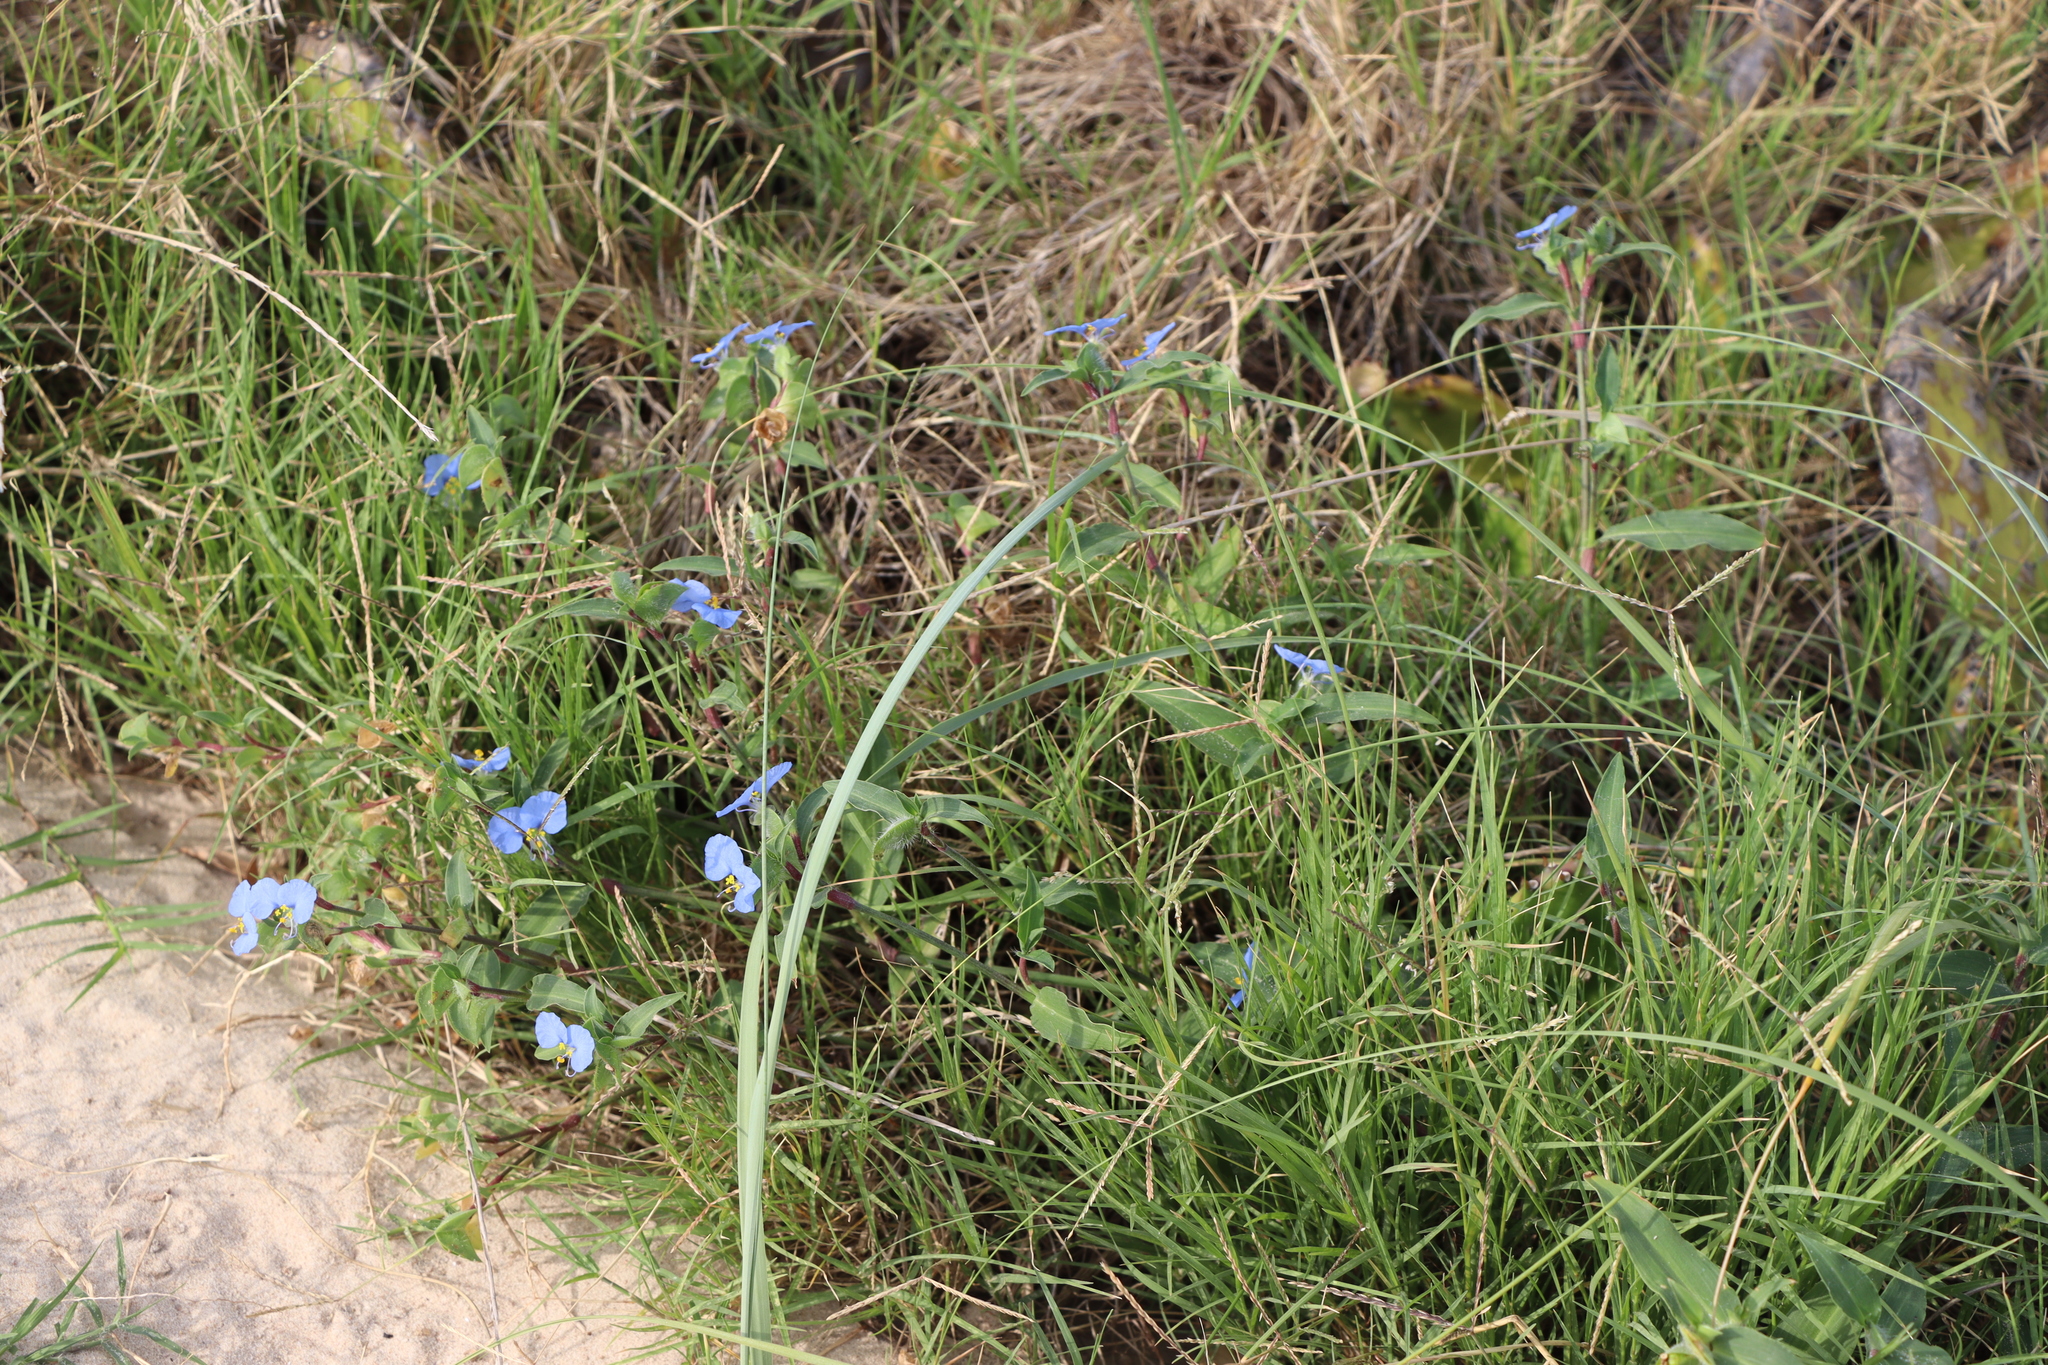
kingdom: Plantae
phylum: Tracheophyta
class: Liliopsida
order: Commelinales
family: Commelinaceae
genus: Commelina
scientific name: Commelina erecta
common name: Blousel blommetjie
